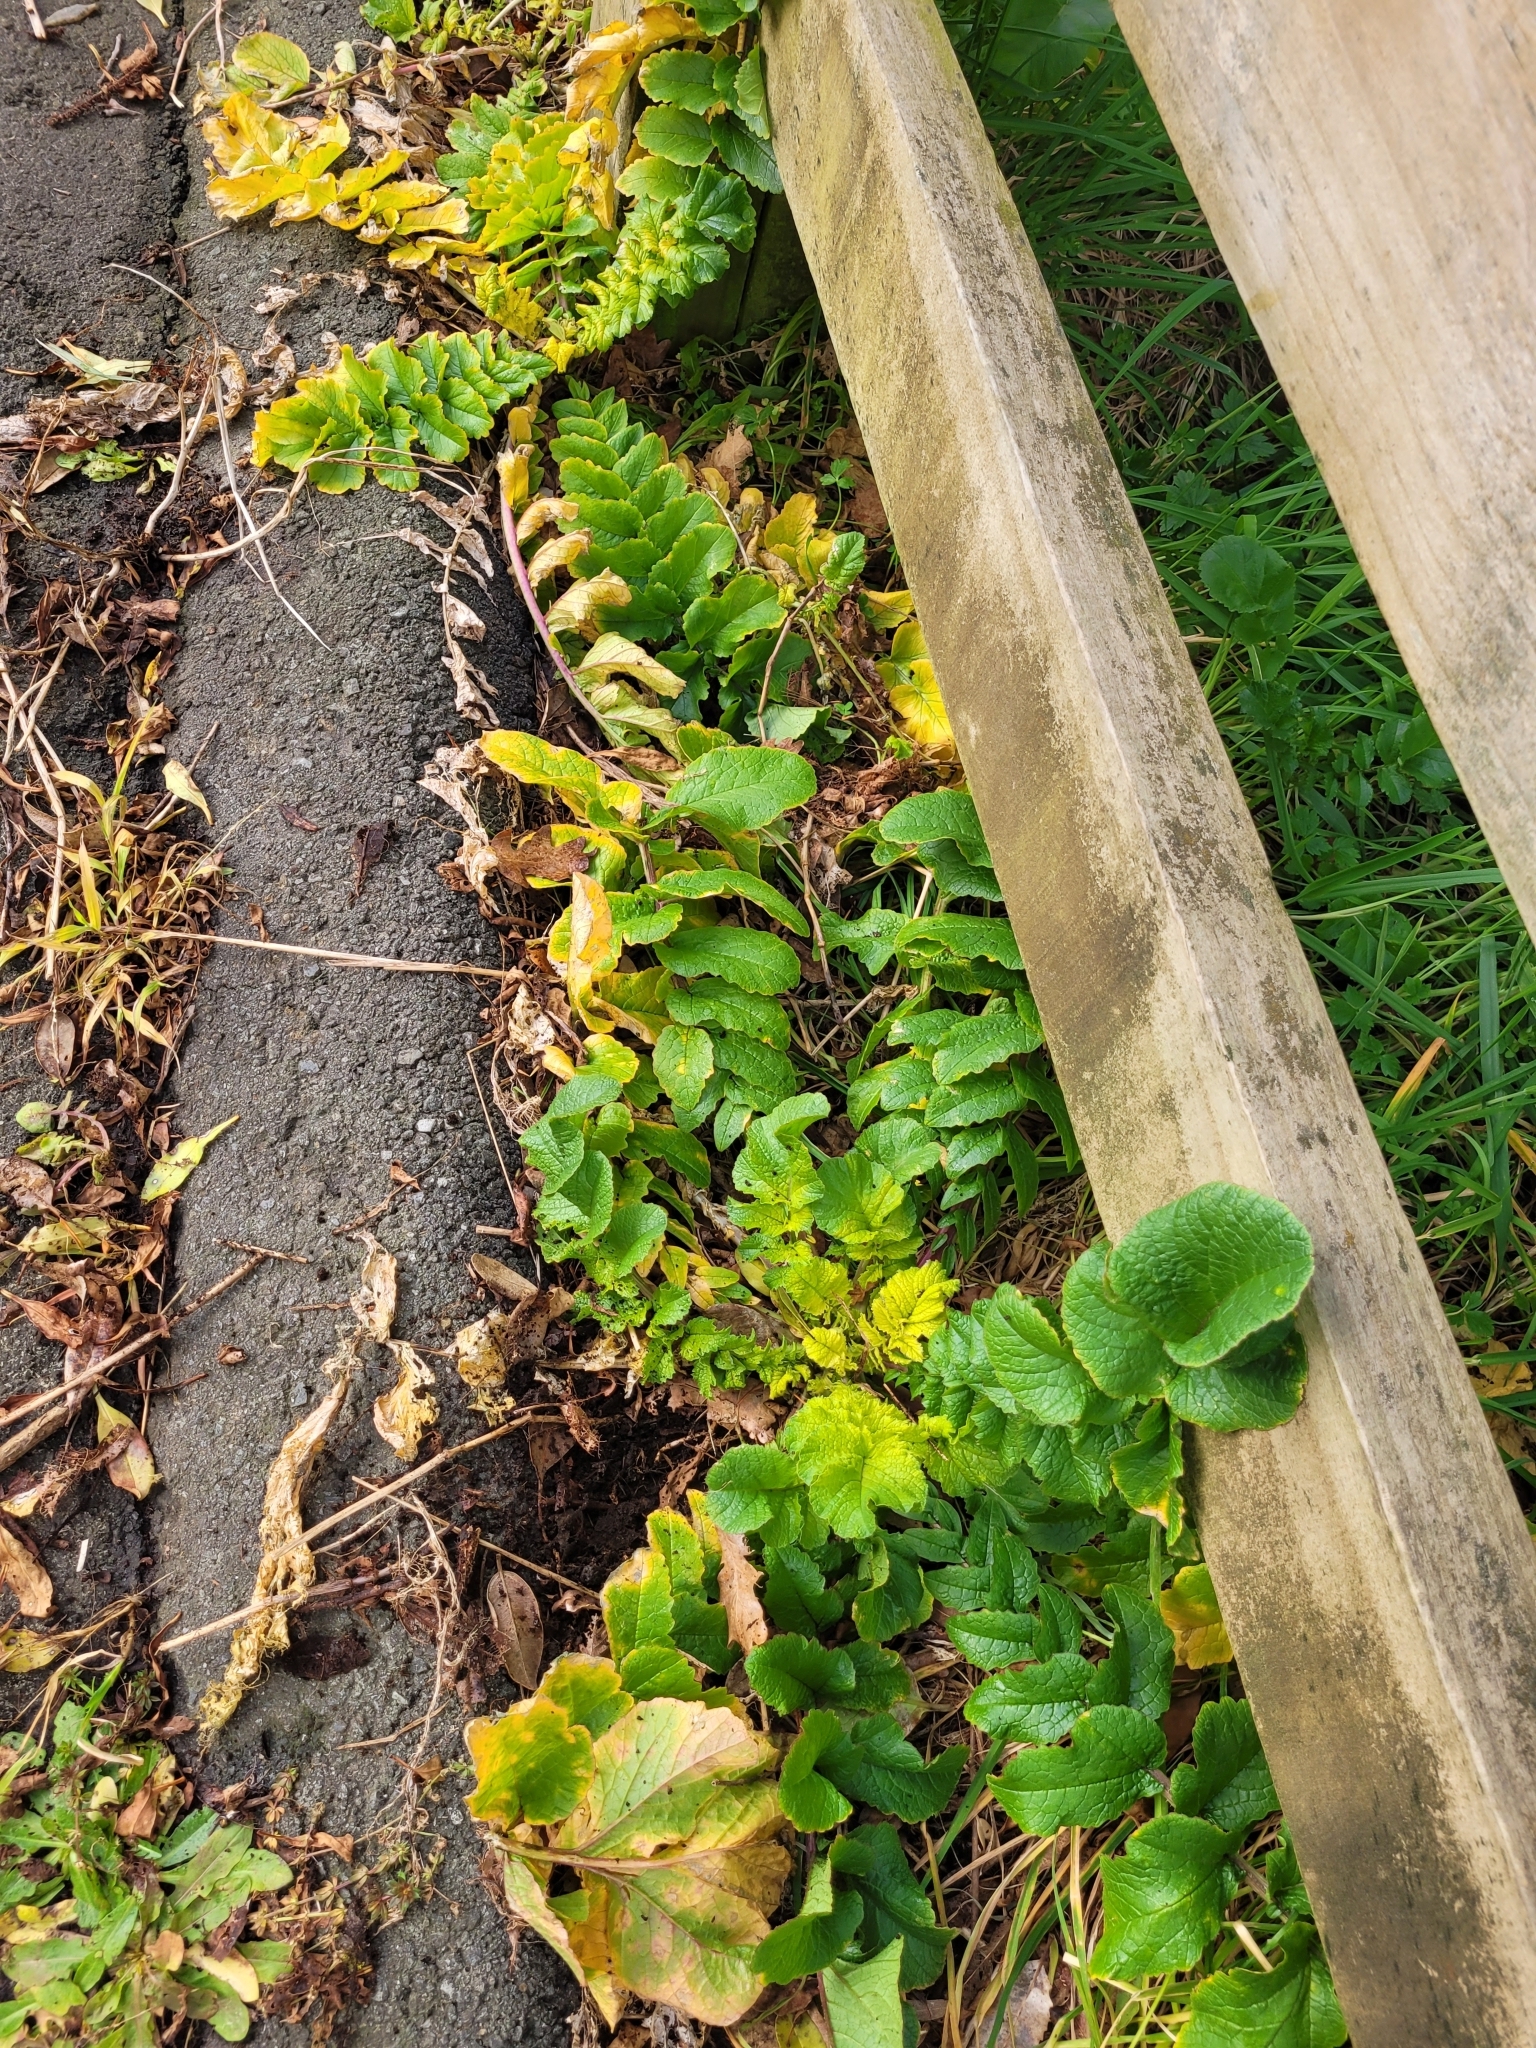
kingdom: Plantae
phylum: Tracheophyta
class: Magnoliopsida
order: Brassicales
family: Brassicaceae
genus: Raphanus
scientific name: Raphanus raphanistrum
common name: Wild radish
